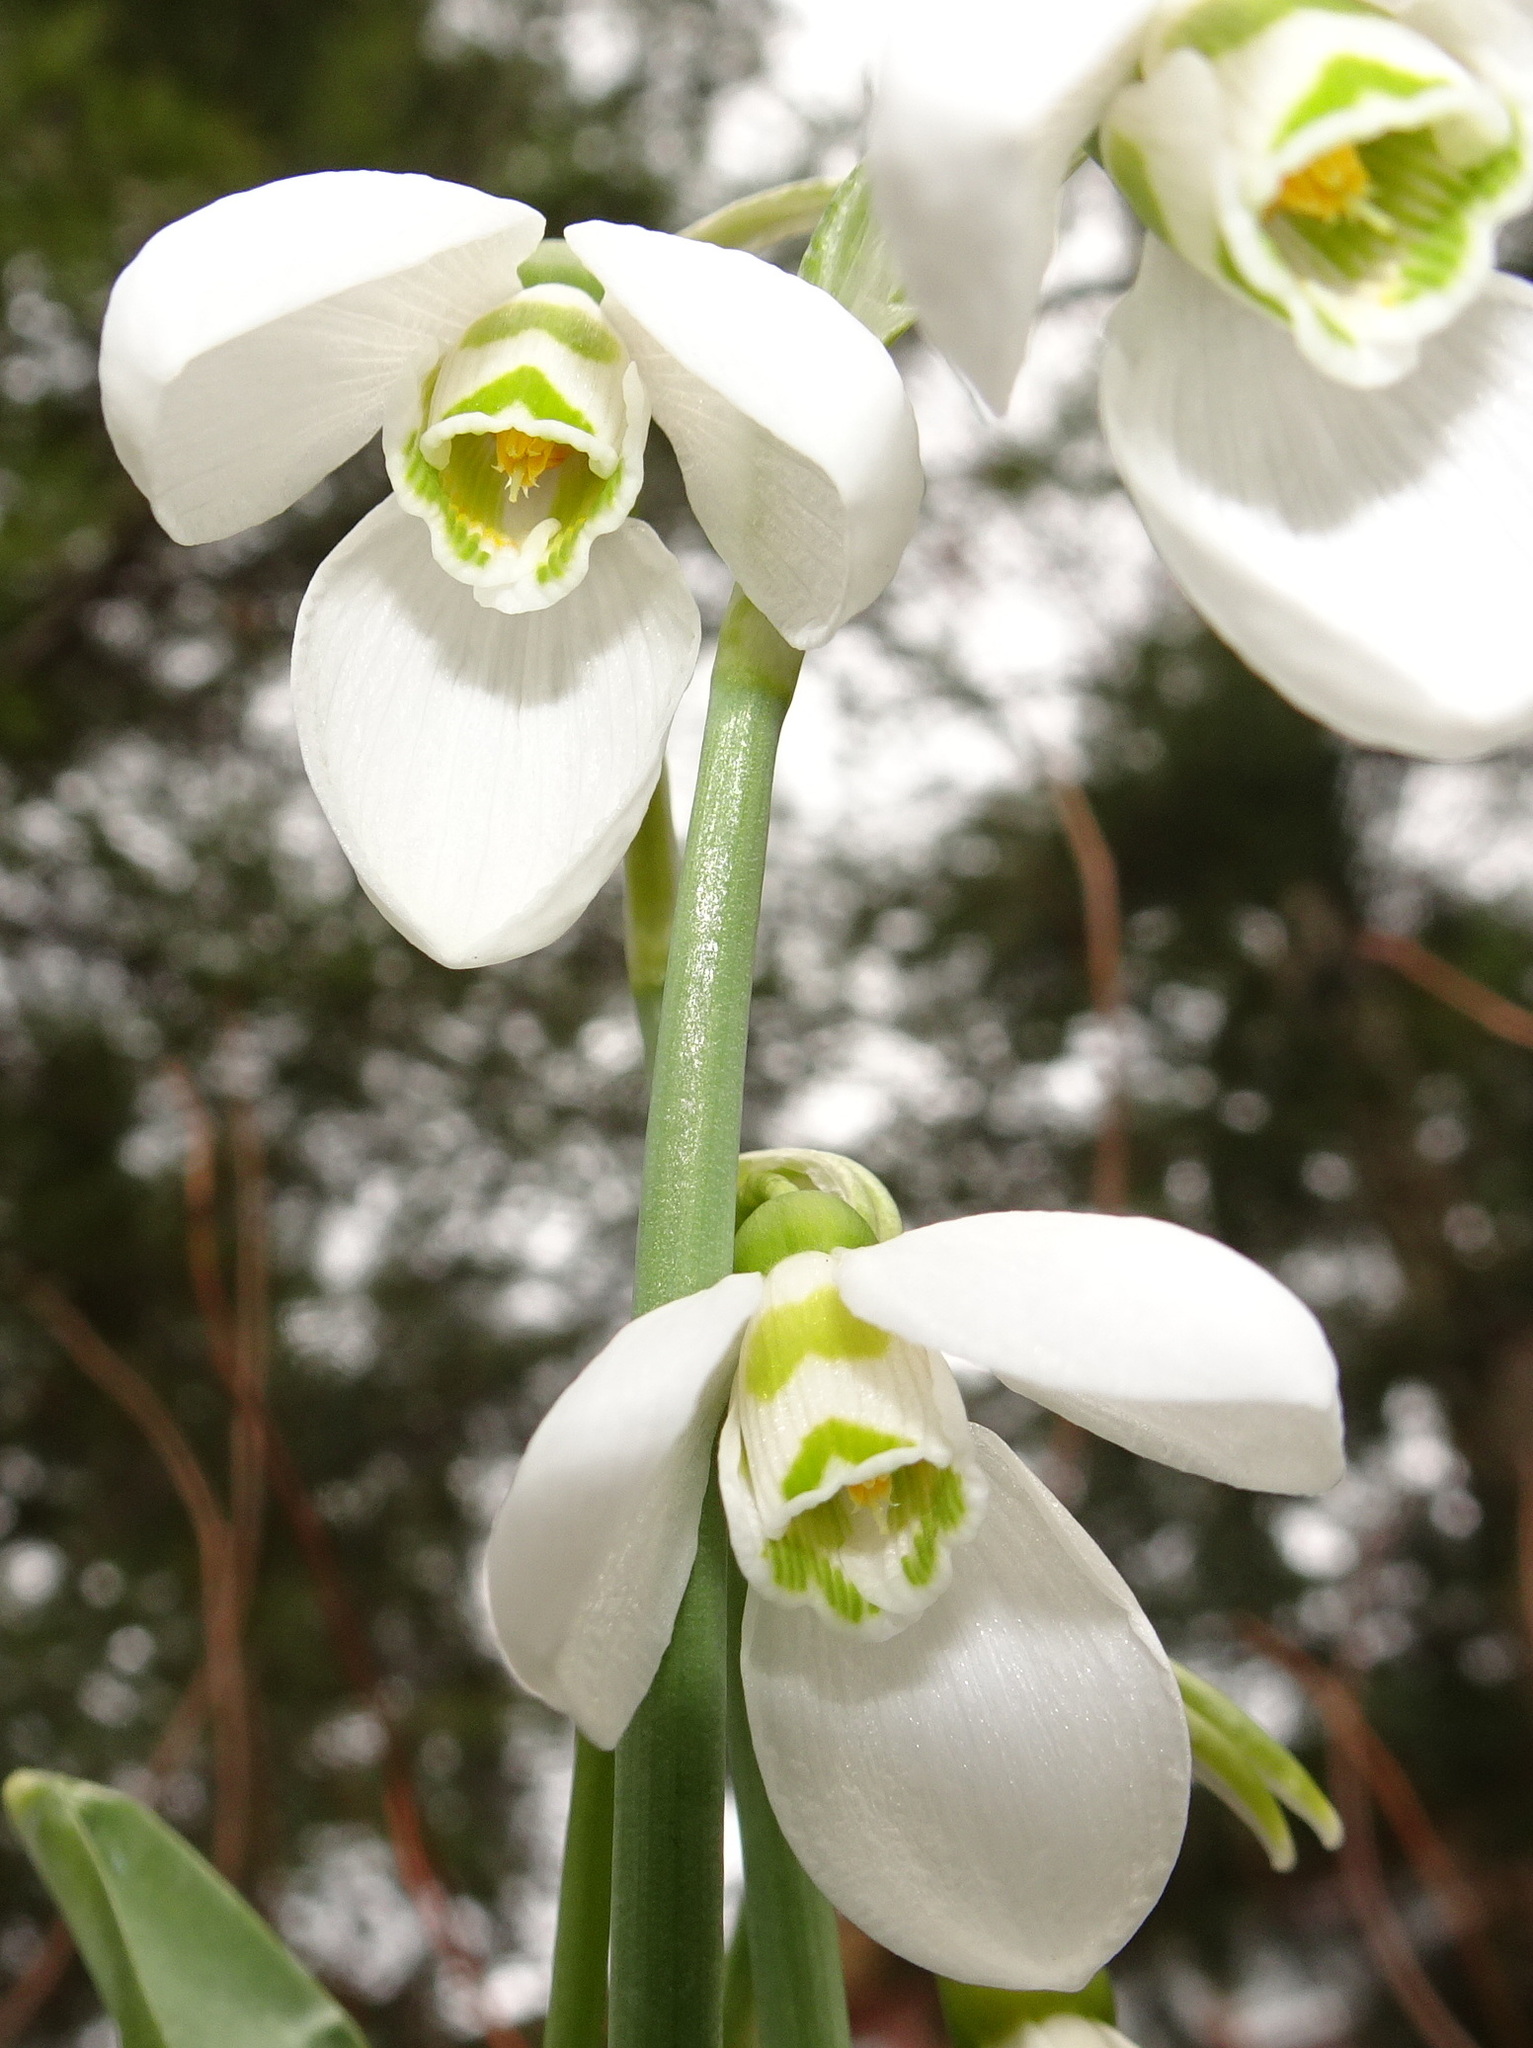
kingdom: Plantae
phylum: Tracheophyta
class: Liliopsida
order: Asparagales
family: Amaryllidaceae
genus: Galanthus
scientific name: Galanthus elwesii
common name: Greater snowdrop
